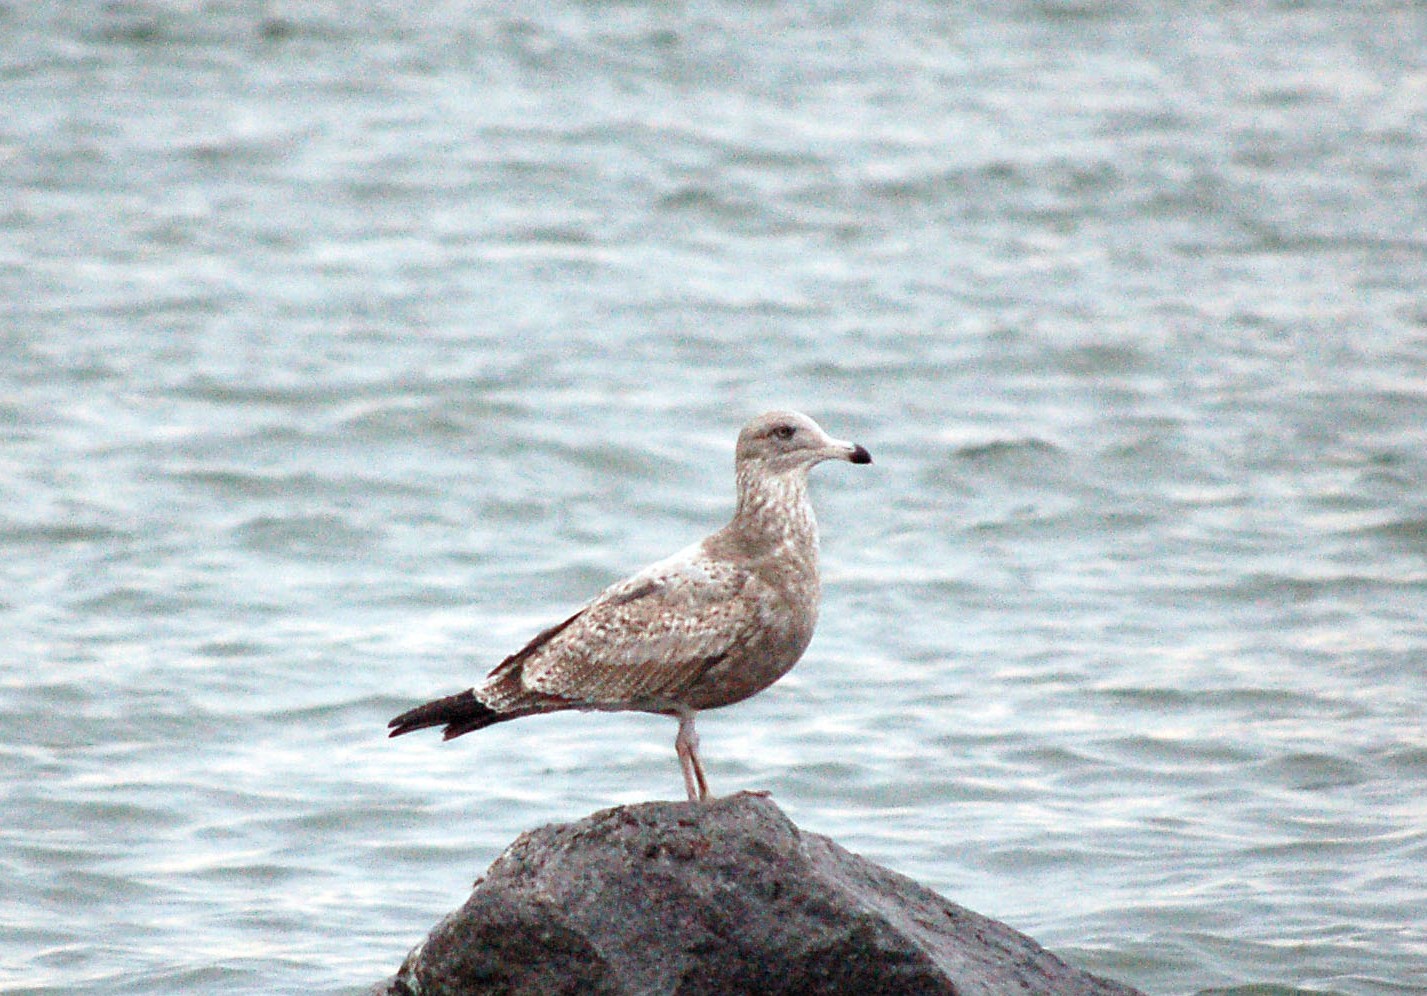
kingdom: Animalia
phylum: Chordata
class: Aves
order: Charadriiformes
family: Laridae
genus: Larus
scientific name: Larus argentatus
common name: Herring gull
